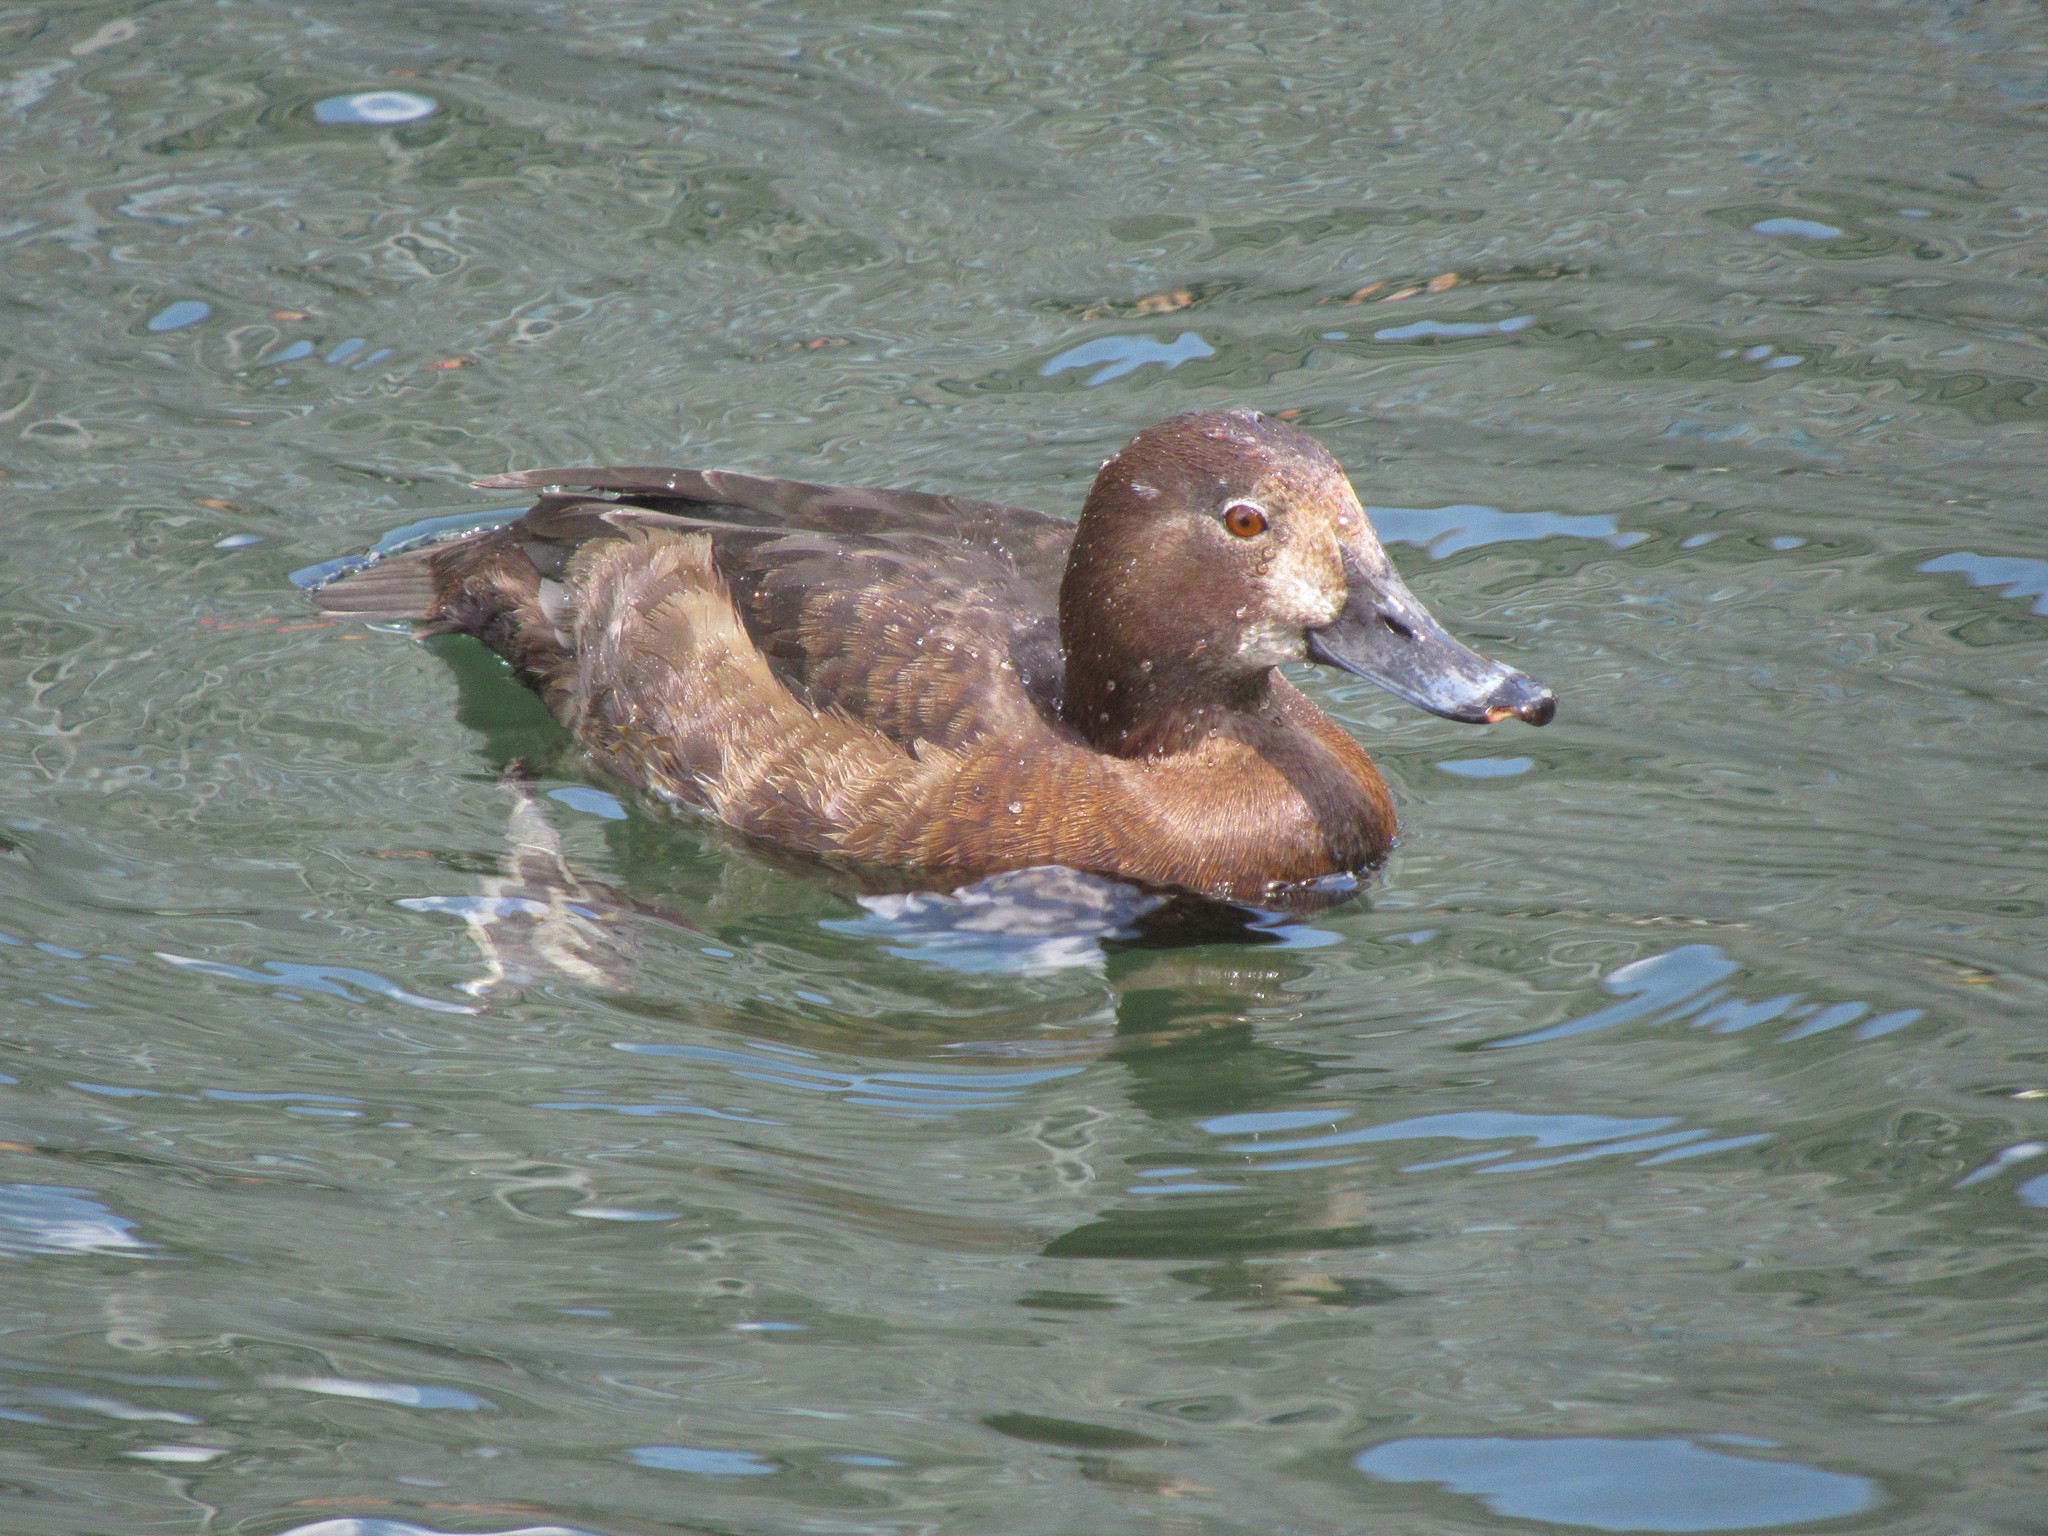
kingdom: Animalia
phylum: Chordata
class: Aves
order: Anseriformes
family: Anatidae
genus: Aythya
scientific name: Aythya fuligula
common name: Tufted duck
